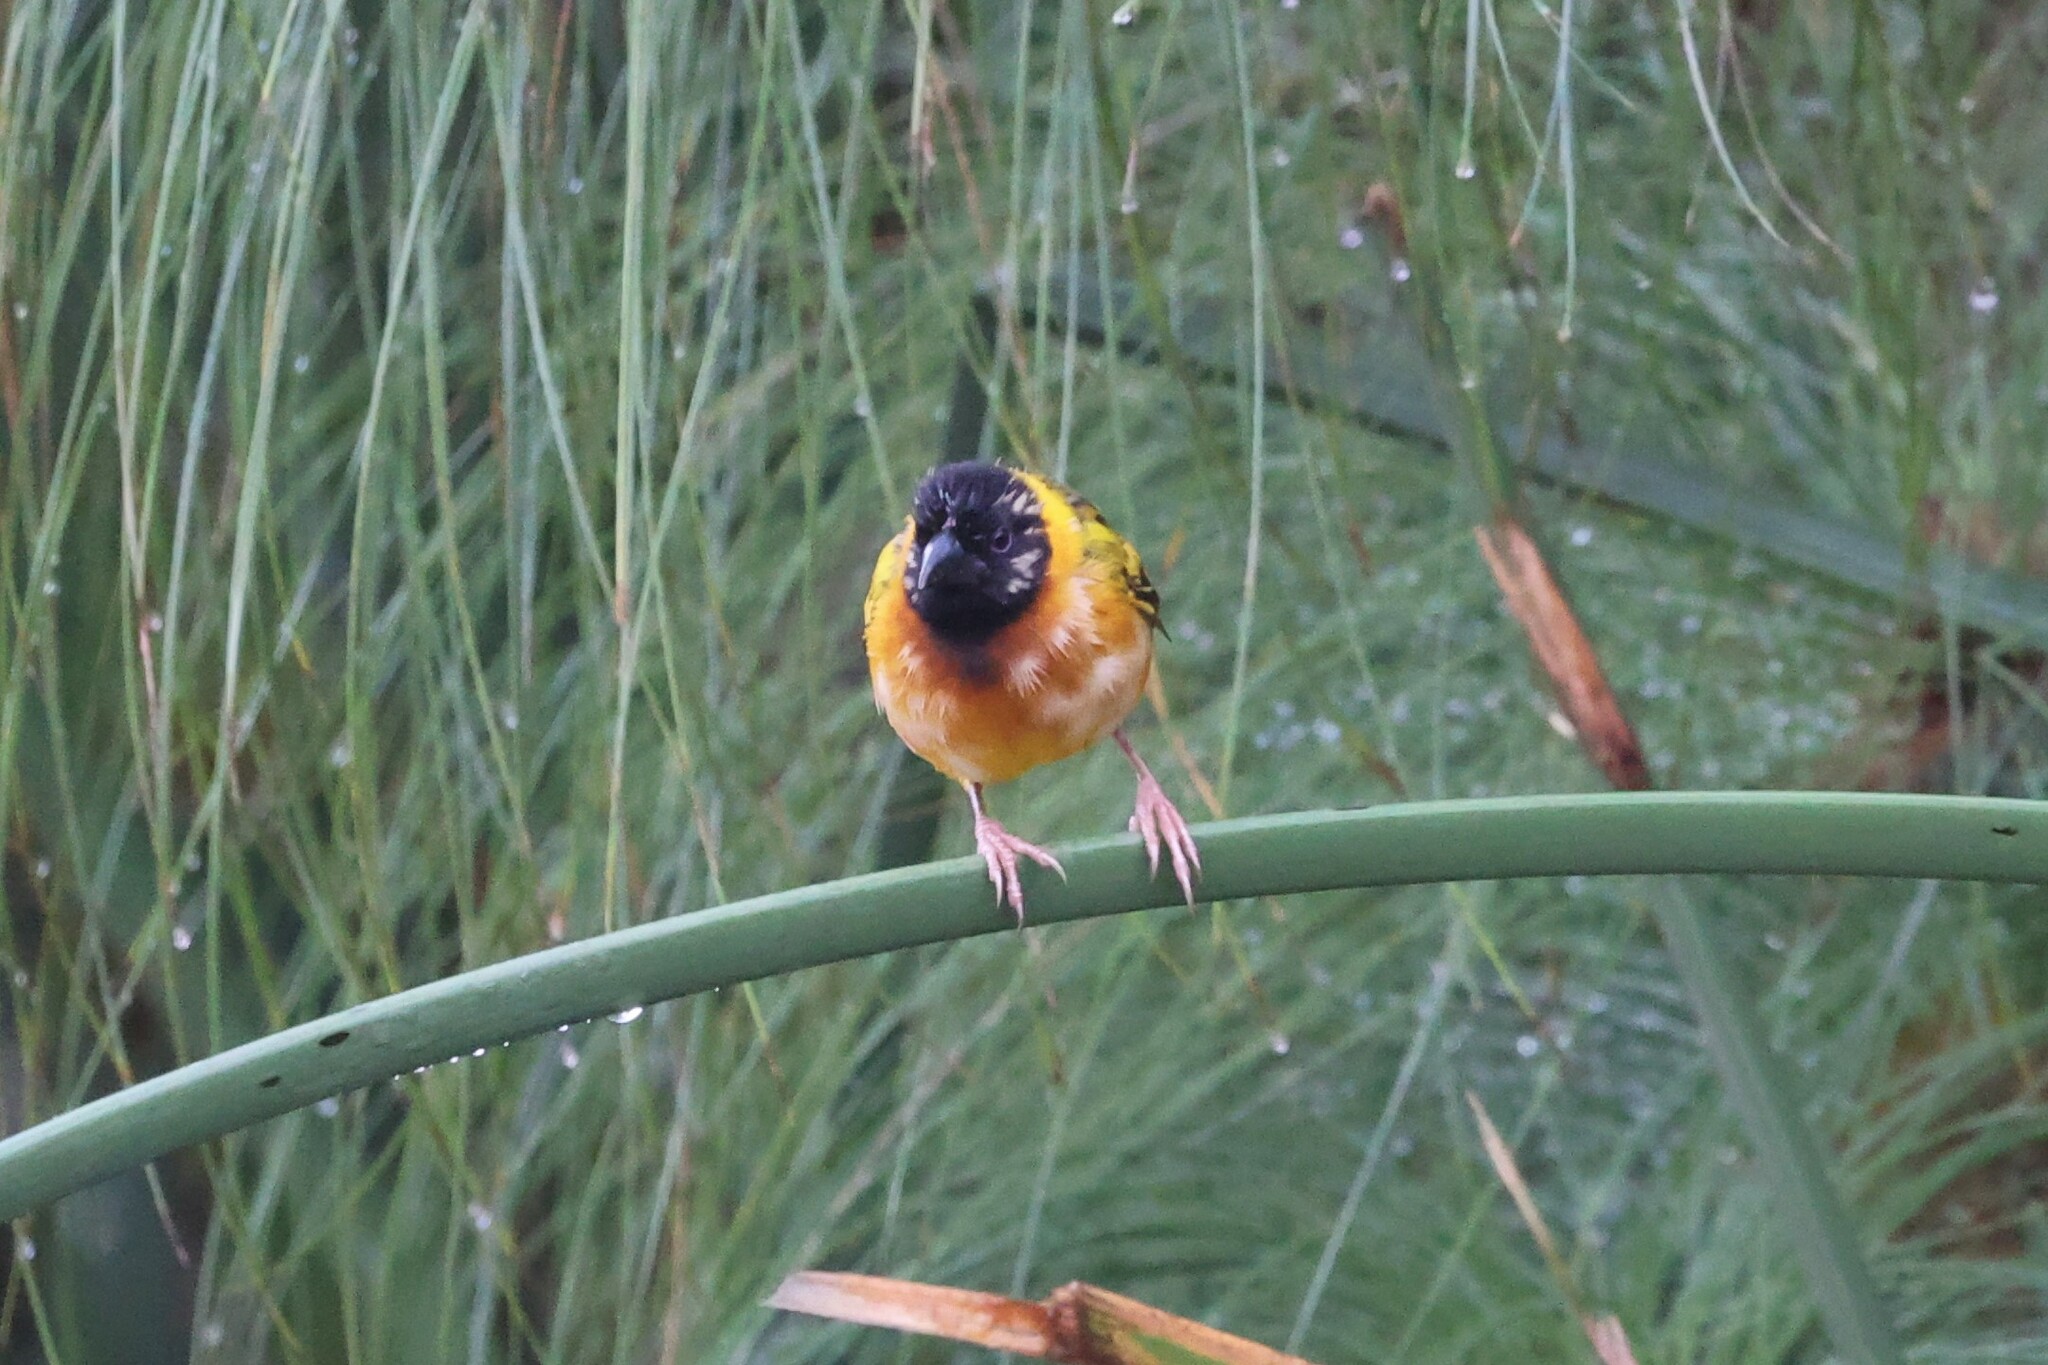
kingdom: Animalia
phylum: Chordata
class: Aves
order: Passeriformes
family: Ploceidae
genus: Ploceus
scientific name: Ploceus melanocephalus
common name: Black-headed weaver
